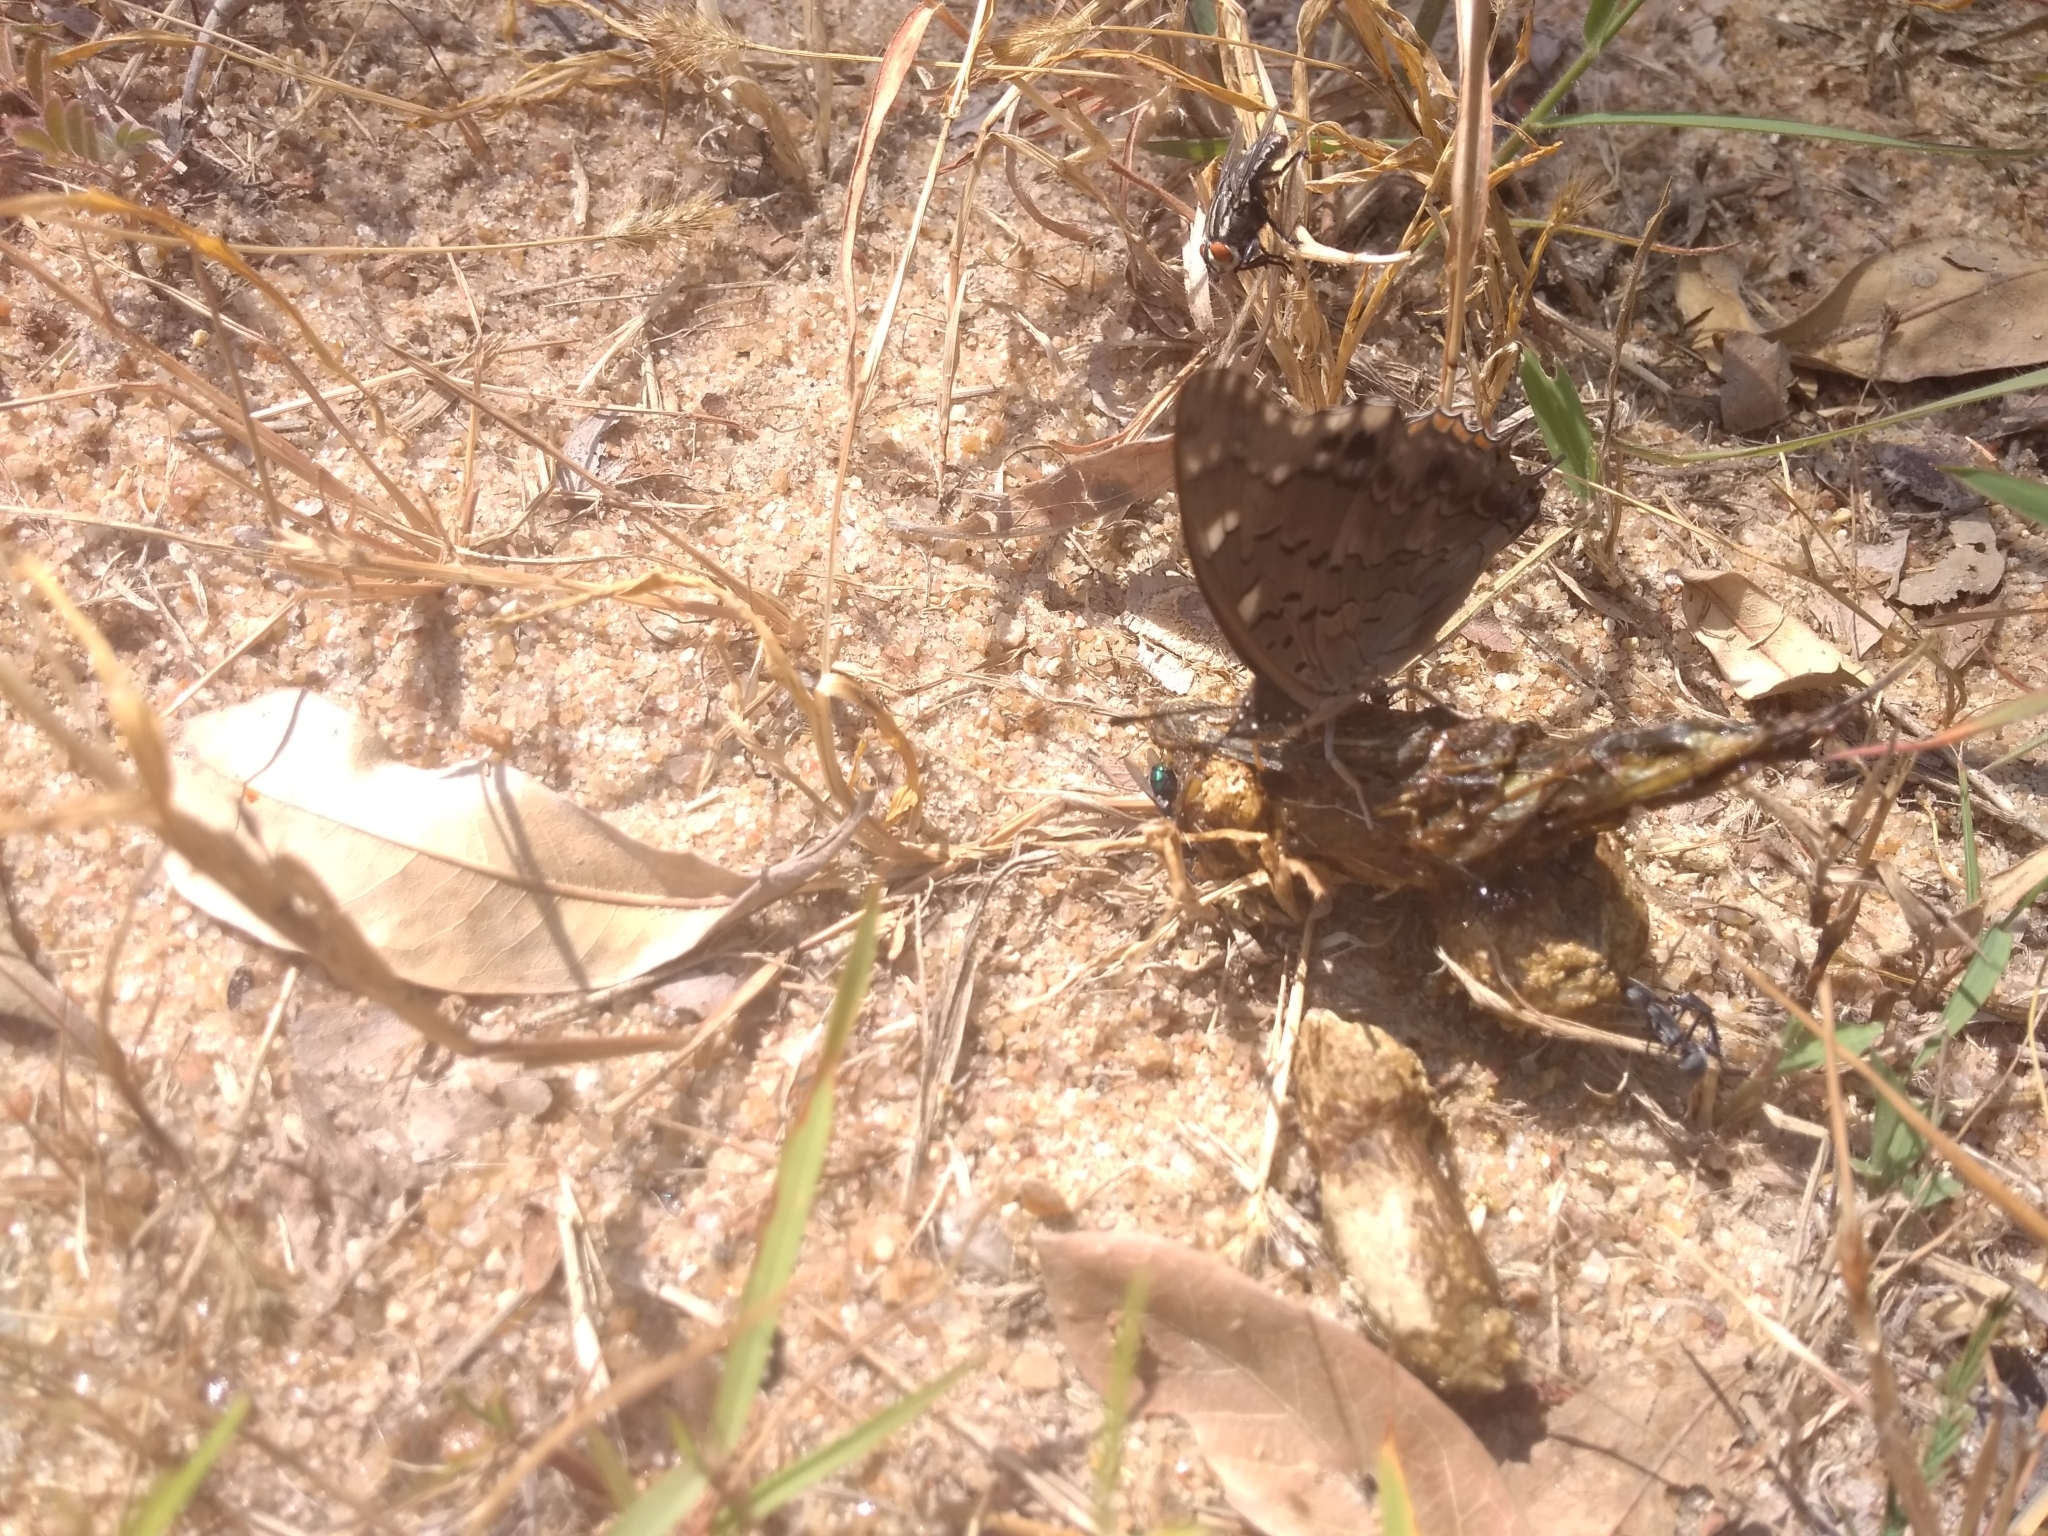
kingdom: Animalia
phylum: Arthropoda
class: Insecta
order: Lepidoptera
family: Nymphalidae
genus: Charaxes
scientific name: Charaxes guderiana
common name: Blue-spangled charaxes
